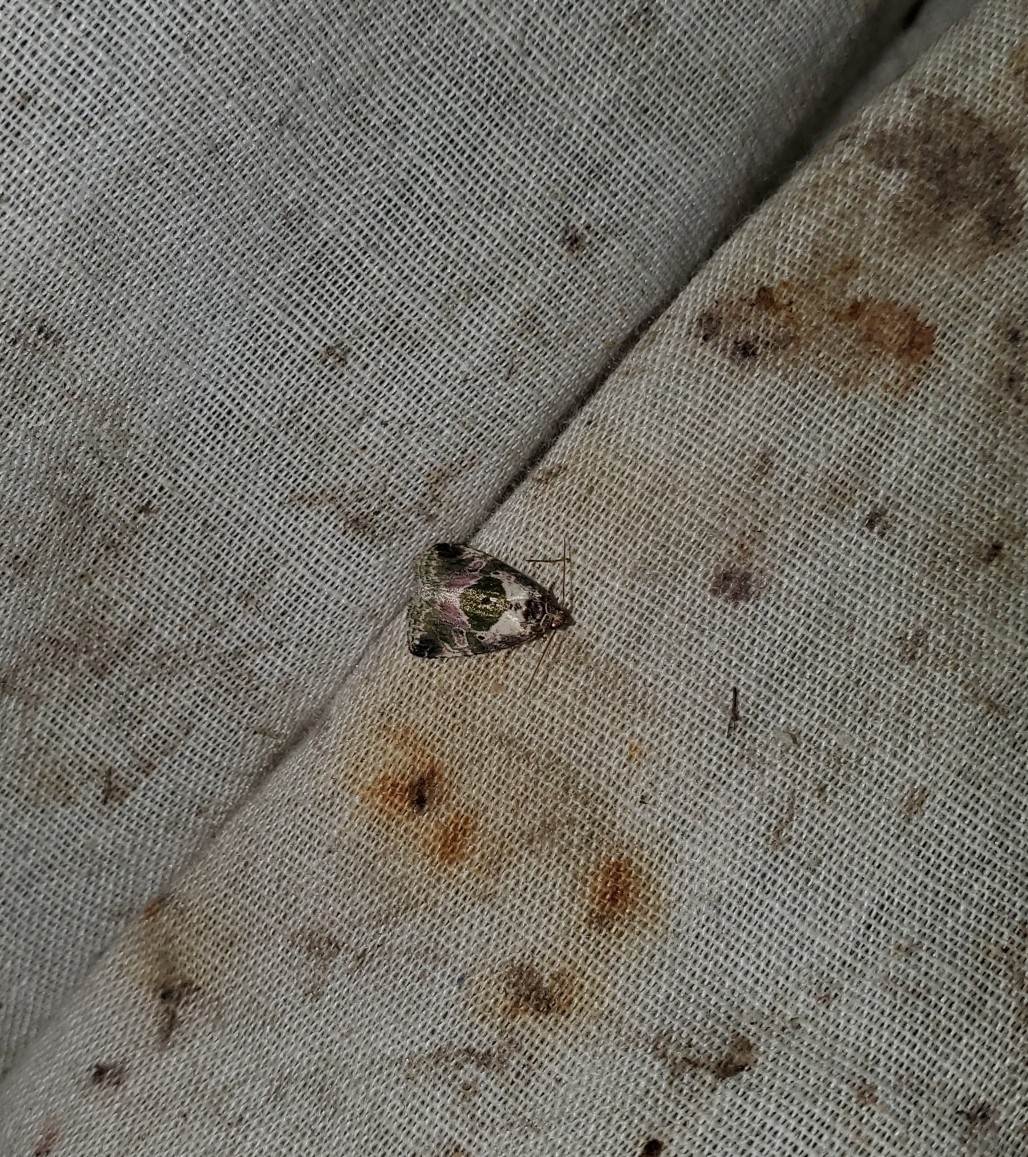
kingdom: Animalia
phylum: Arthropoda
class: Insecta
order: Lepidoptera
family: Noctuidae
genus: Maliattha
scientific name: Maliattha synochitis
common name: Black-dotted glyph
